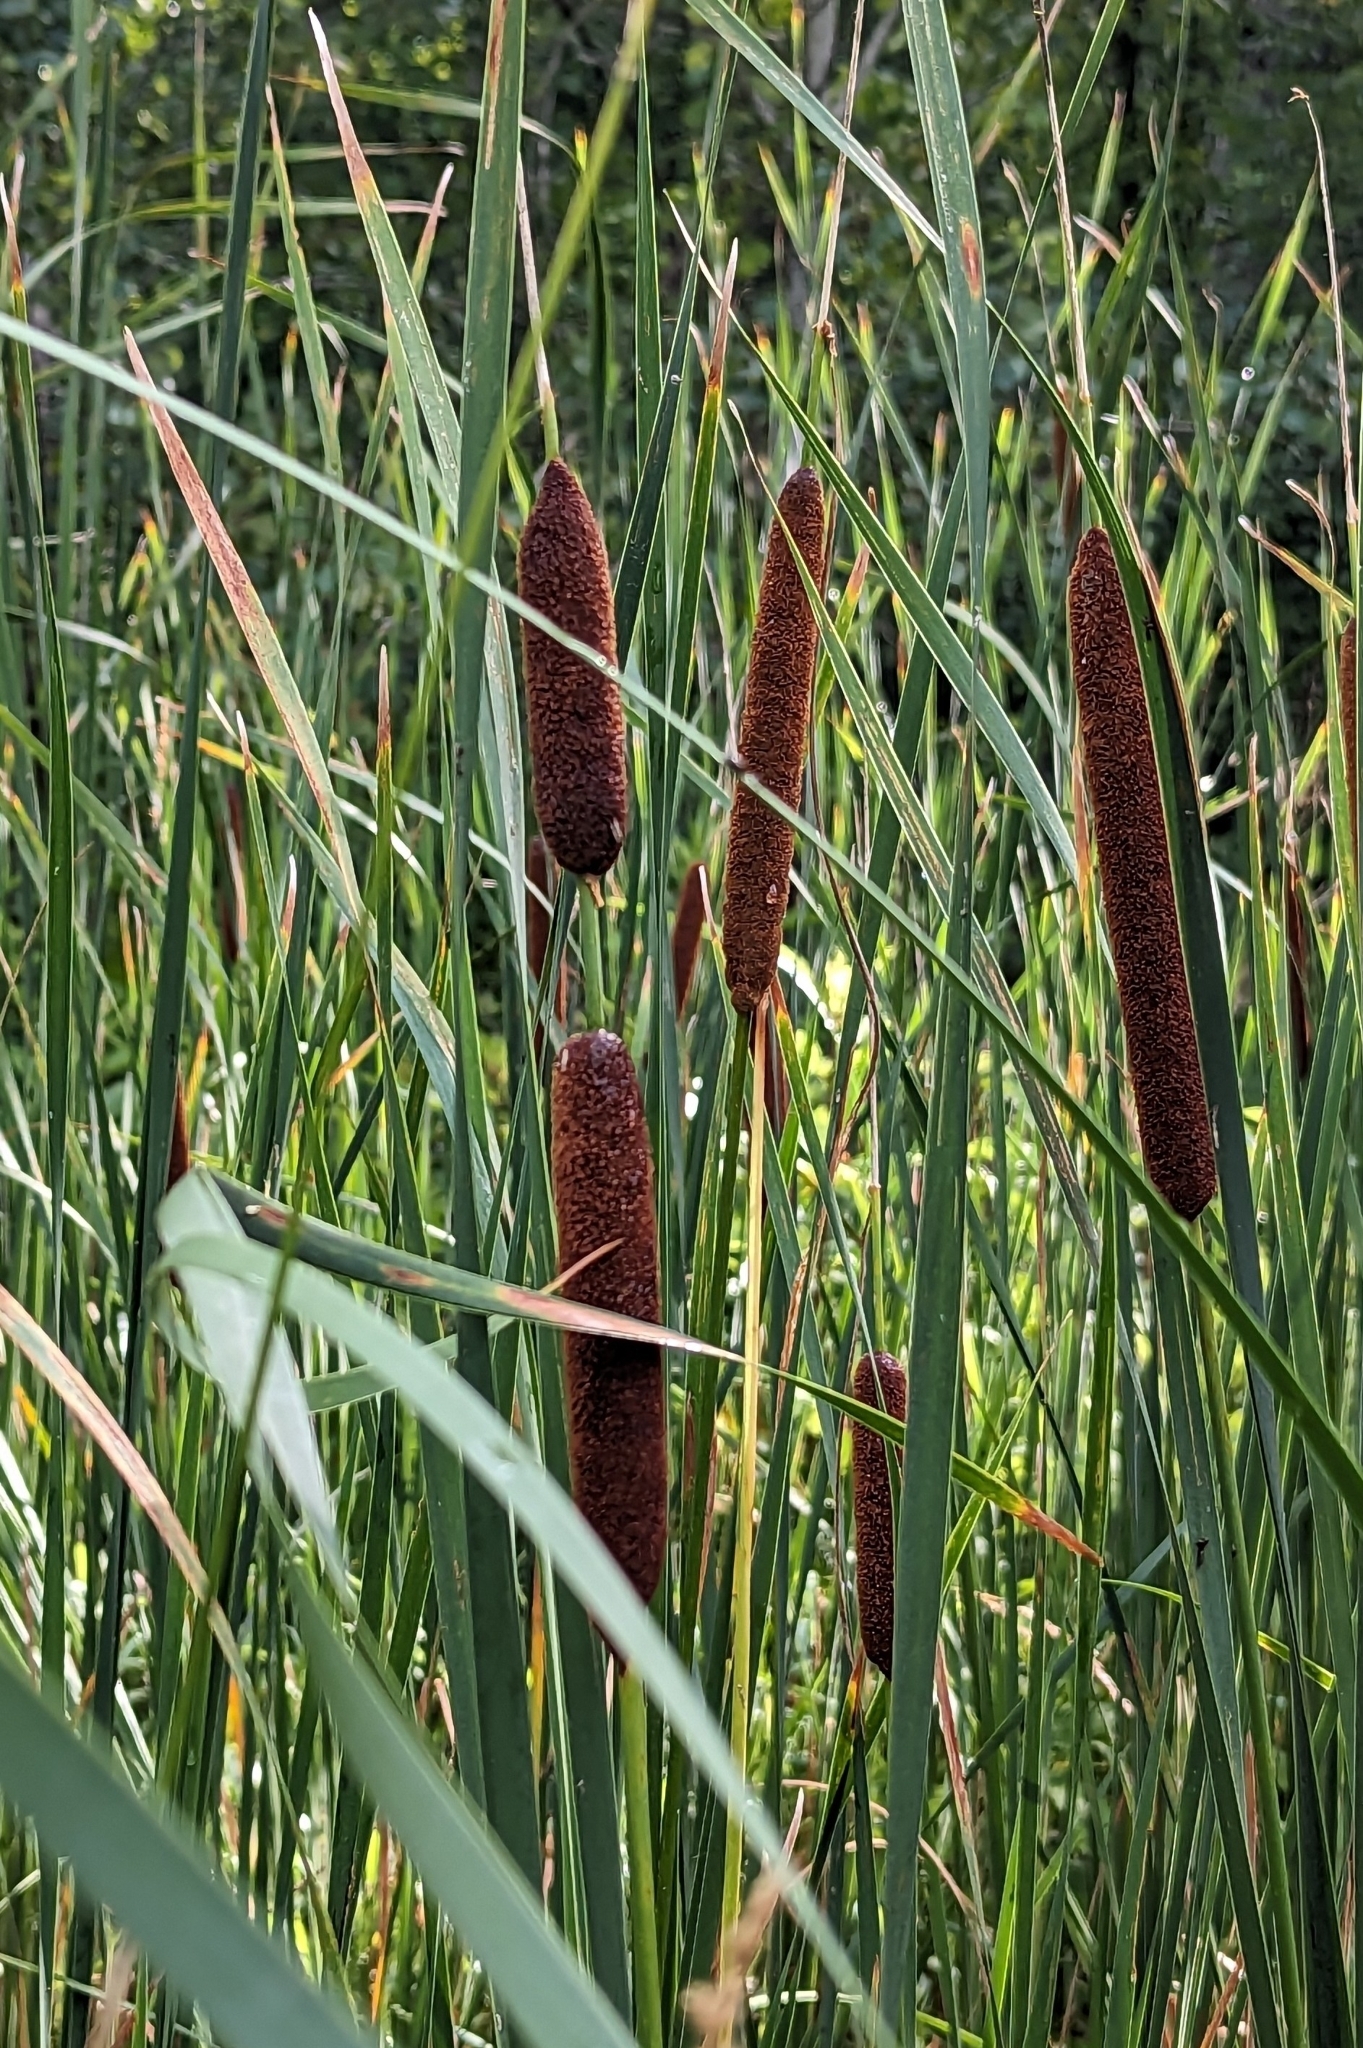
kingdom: Plantae
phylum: Tracheophyta
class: Liliopsida
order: Poales
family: Typhaceae
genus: Typha
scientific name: Typha angustifolia
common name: Lesser bulrush
